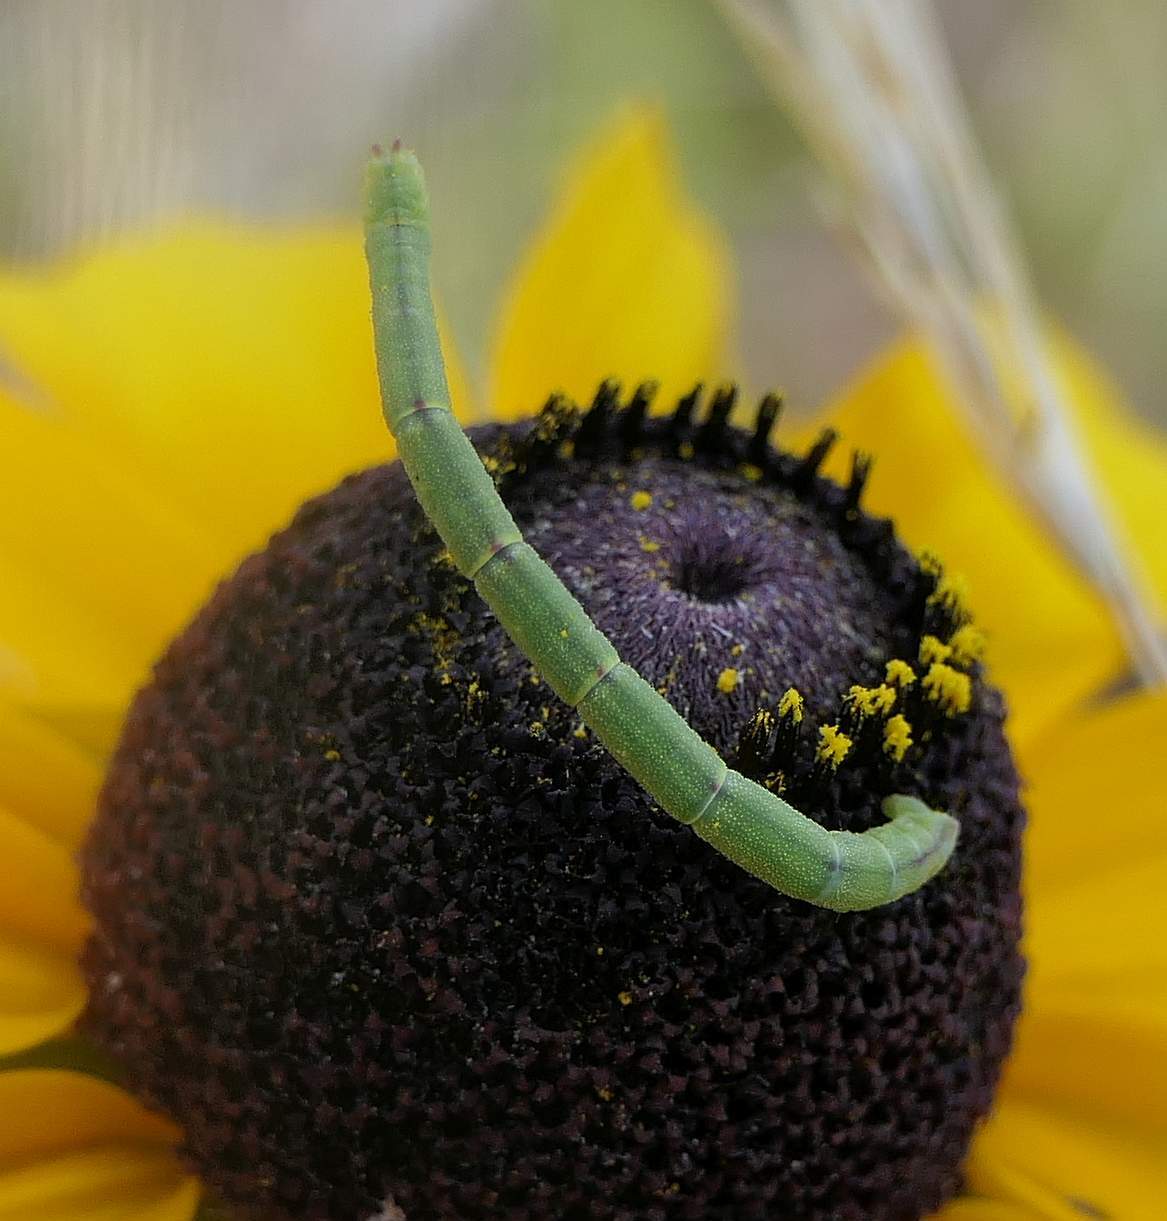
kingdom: Animalia
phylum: Arthropoda
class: Insecta
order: Lepidoptera
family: Geometridae
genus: Chlorochlamys
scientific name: Chlorochlamys chloroleucaria
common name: Blackberry looper
